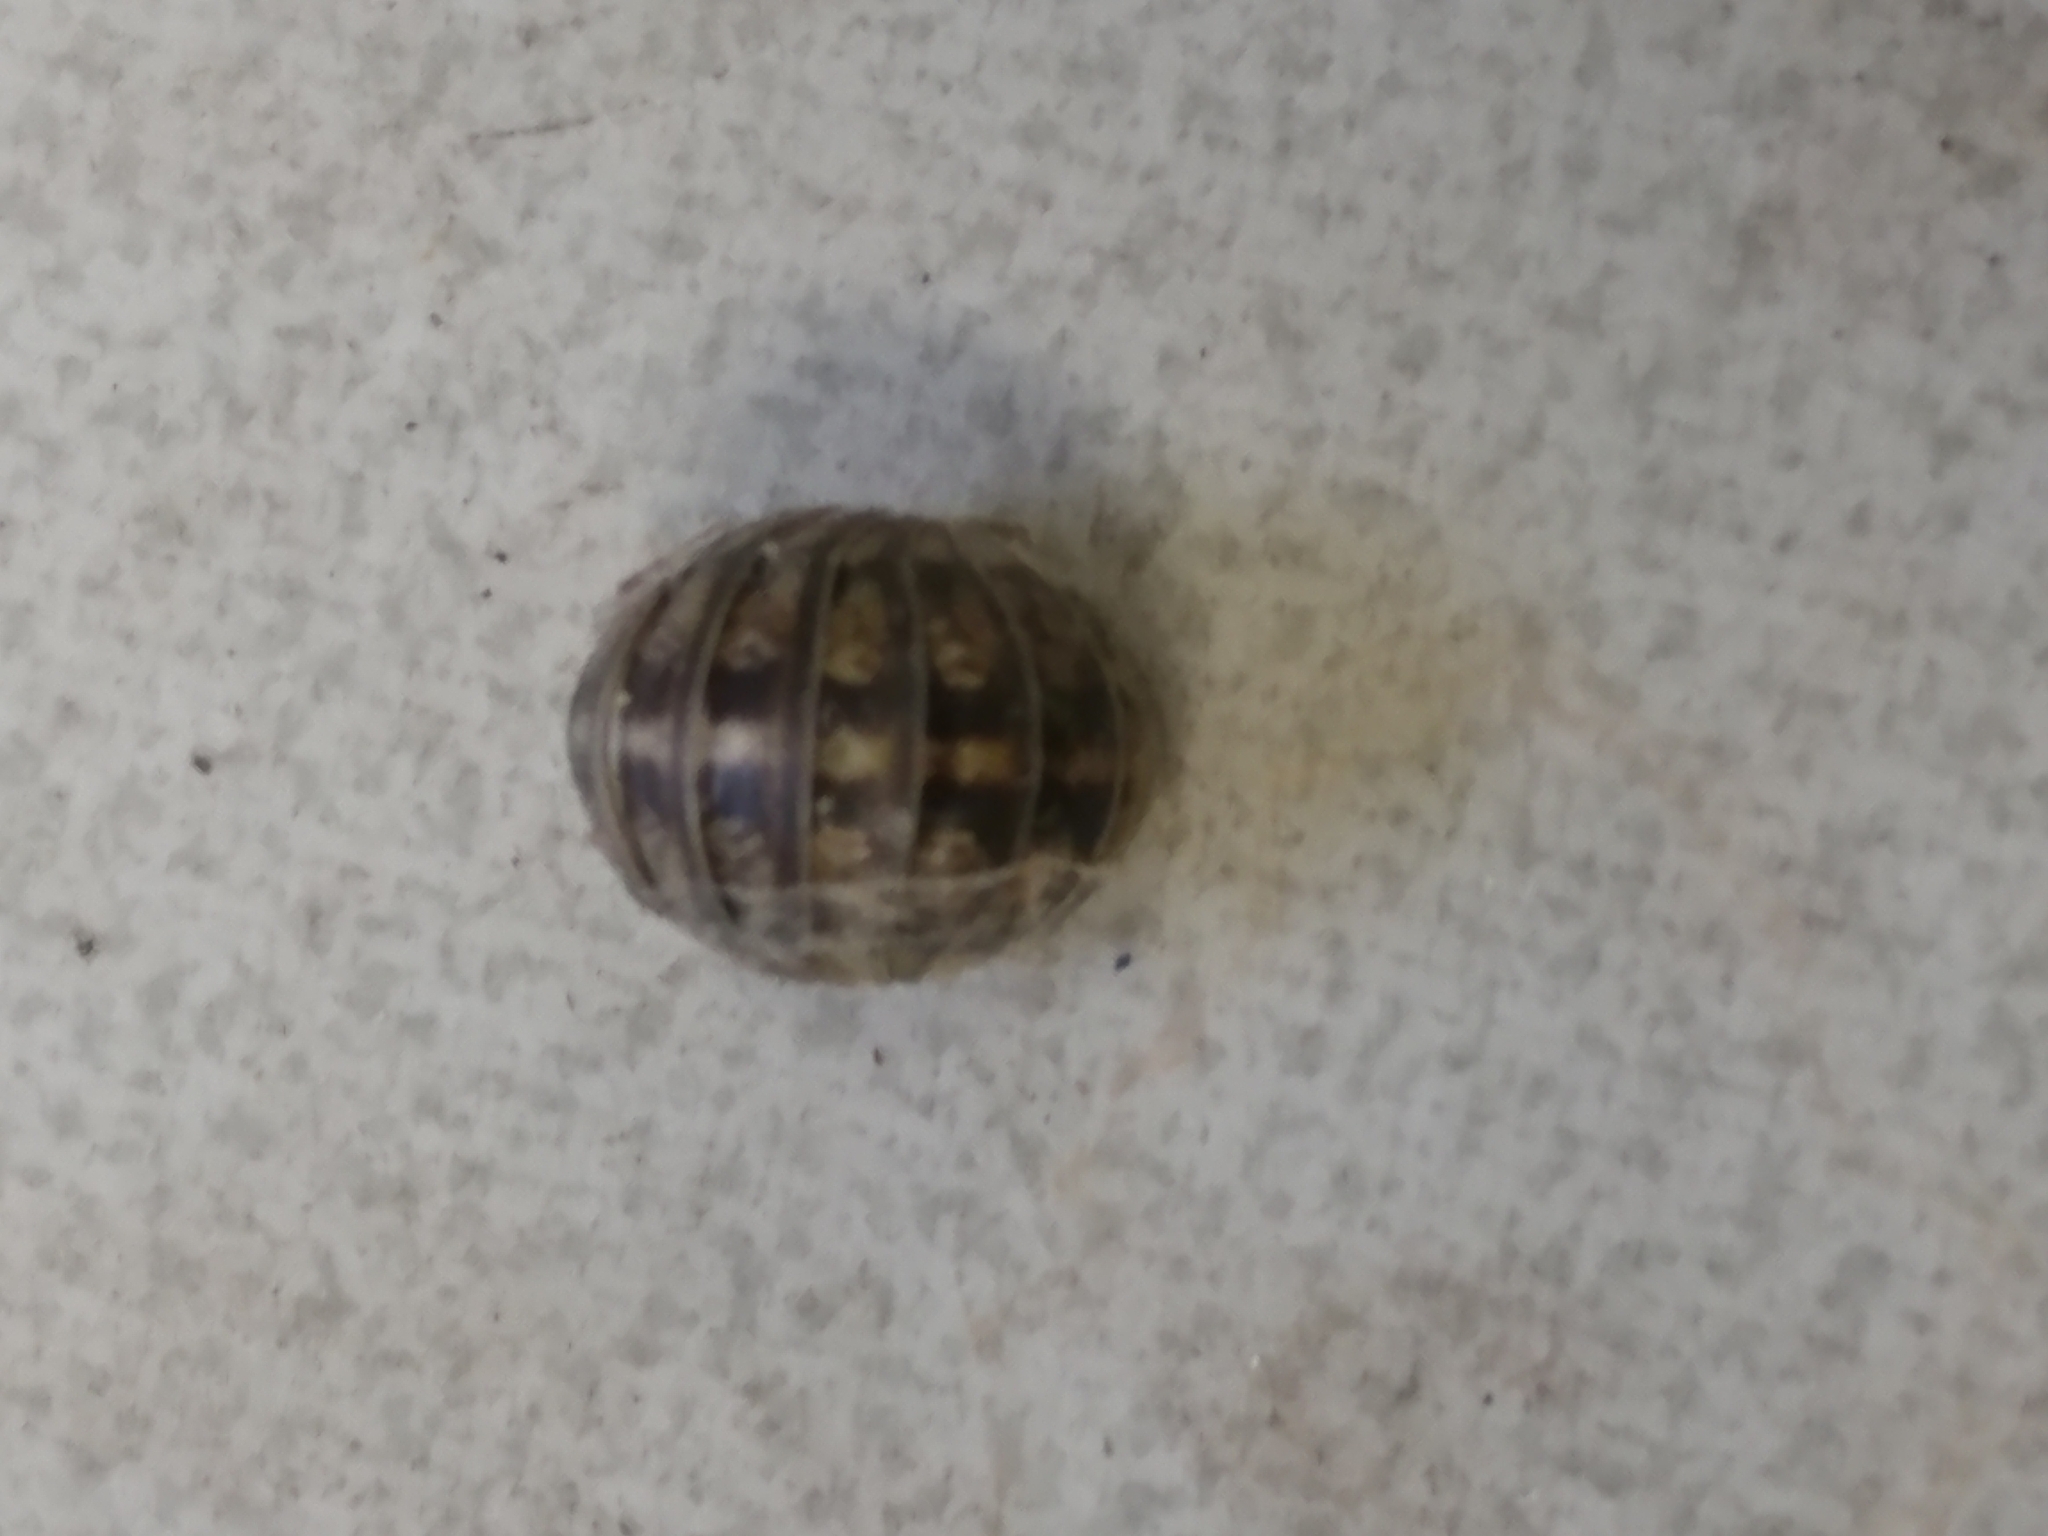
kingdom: Animalia
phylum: Arthropoda
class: Malacostraca
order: Isopoda
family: Armadillidiidae
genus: Armadillidium
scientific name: Armadillidium nasatum
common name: Isopod
